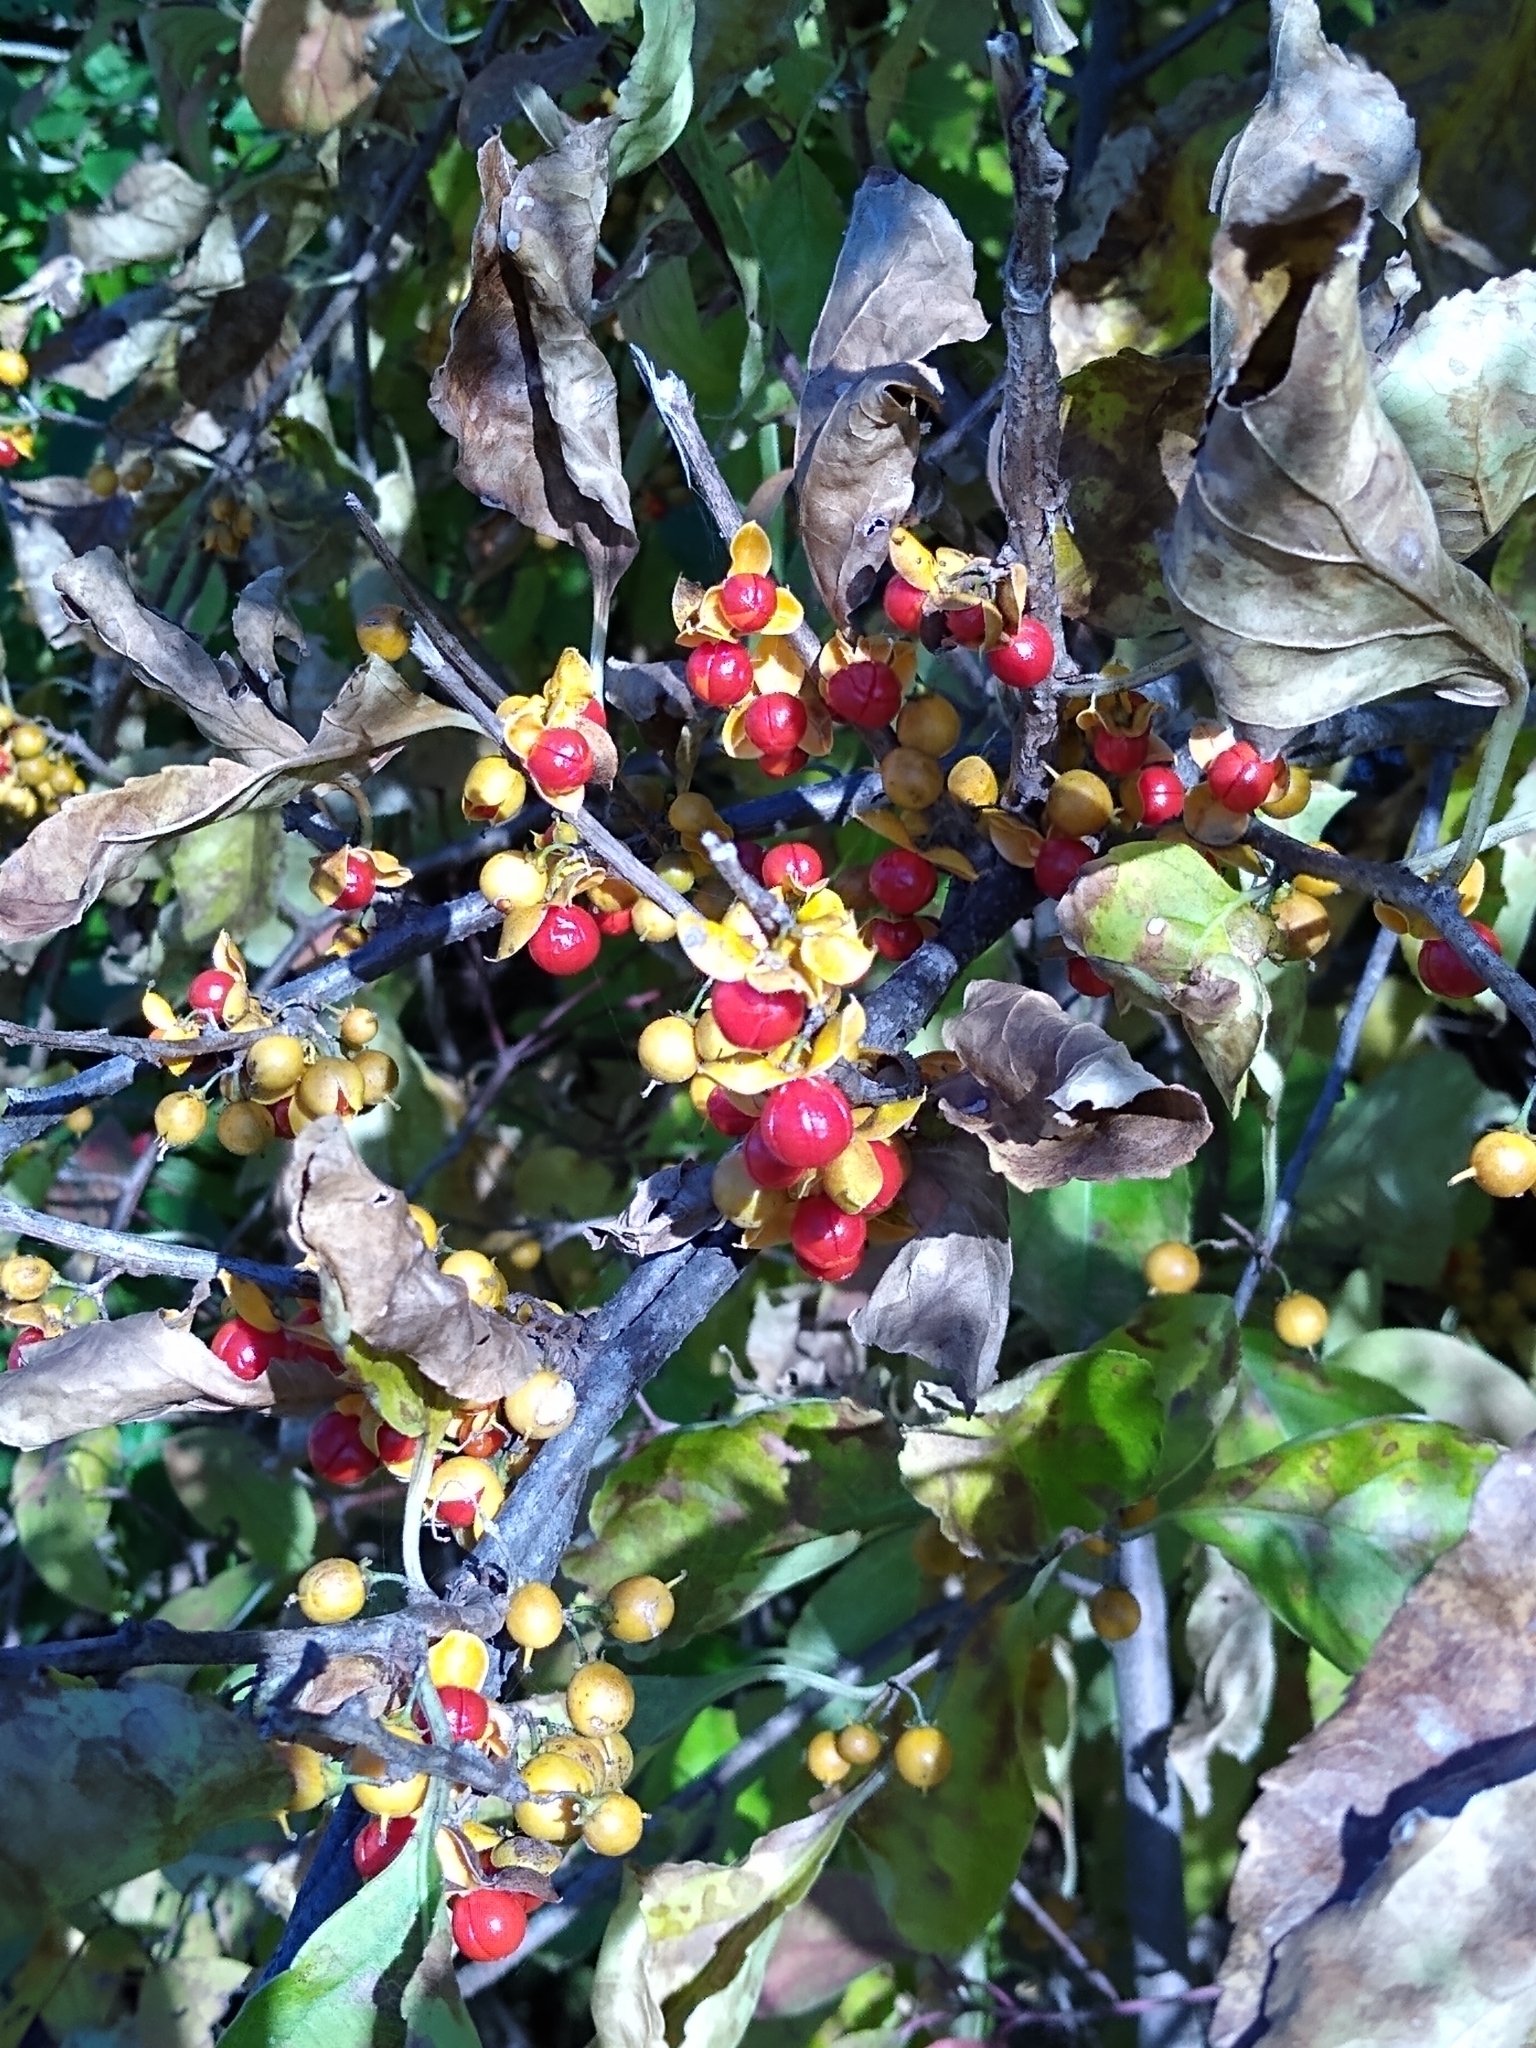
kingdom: Plantae
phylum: Tracheophyta
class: Magnoliopsida
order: Celastrales
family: Celastraceae
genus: Celastrus
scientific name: Celastrus orbiculatus
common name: Oriental bittersweet
